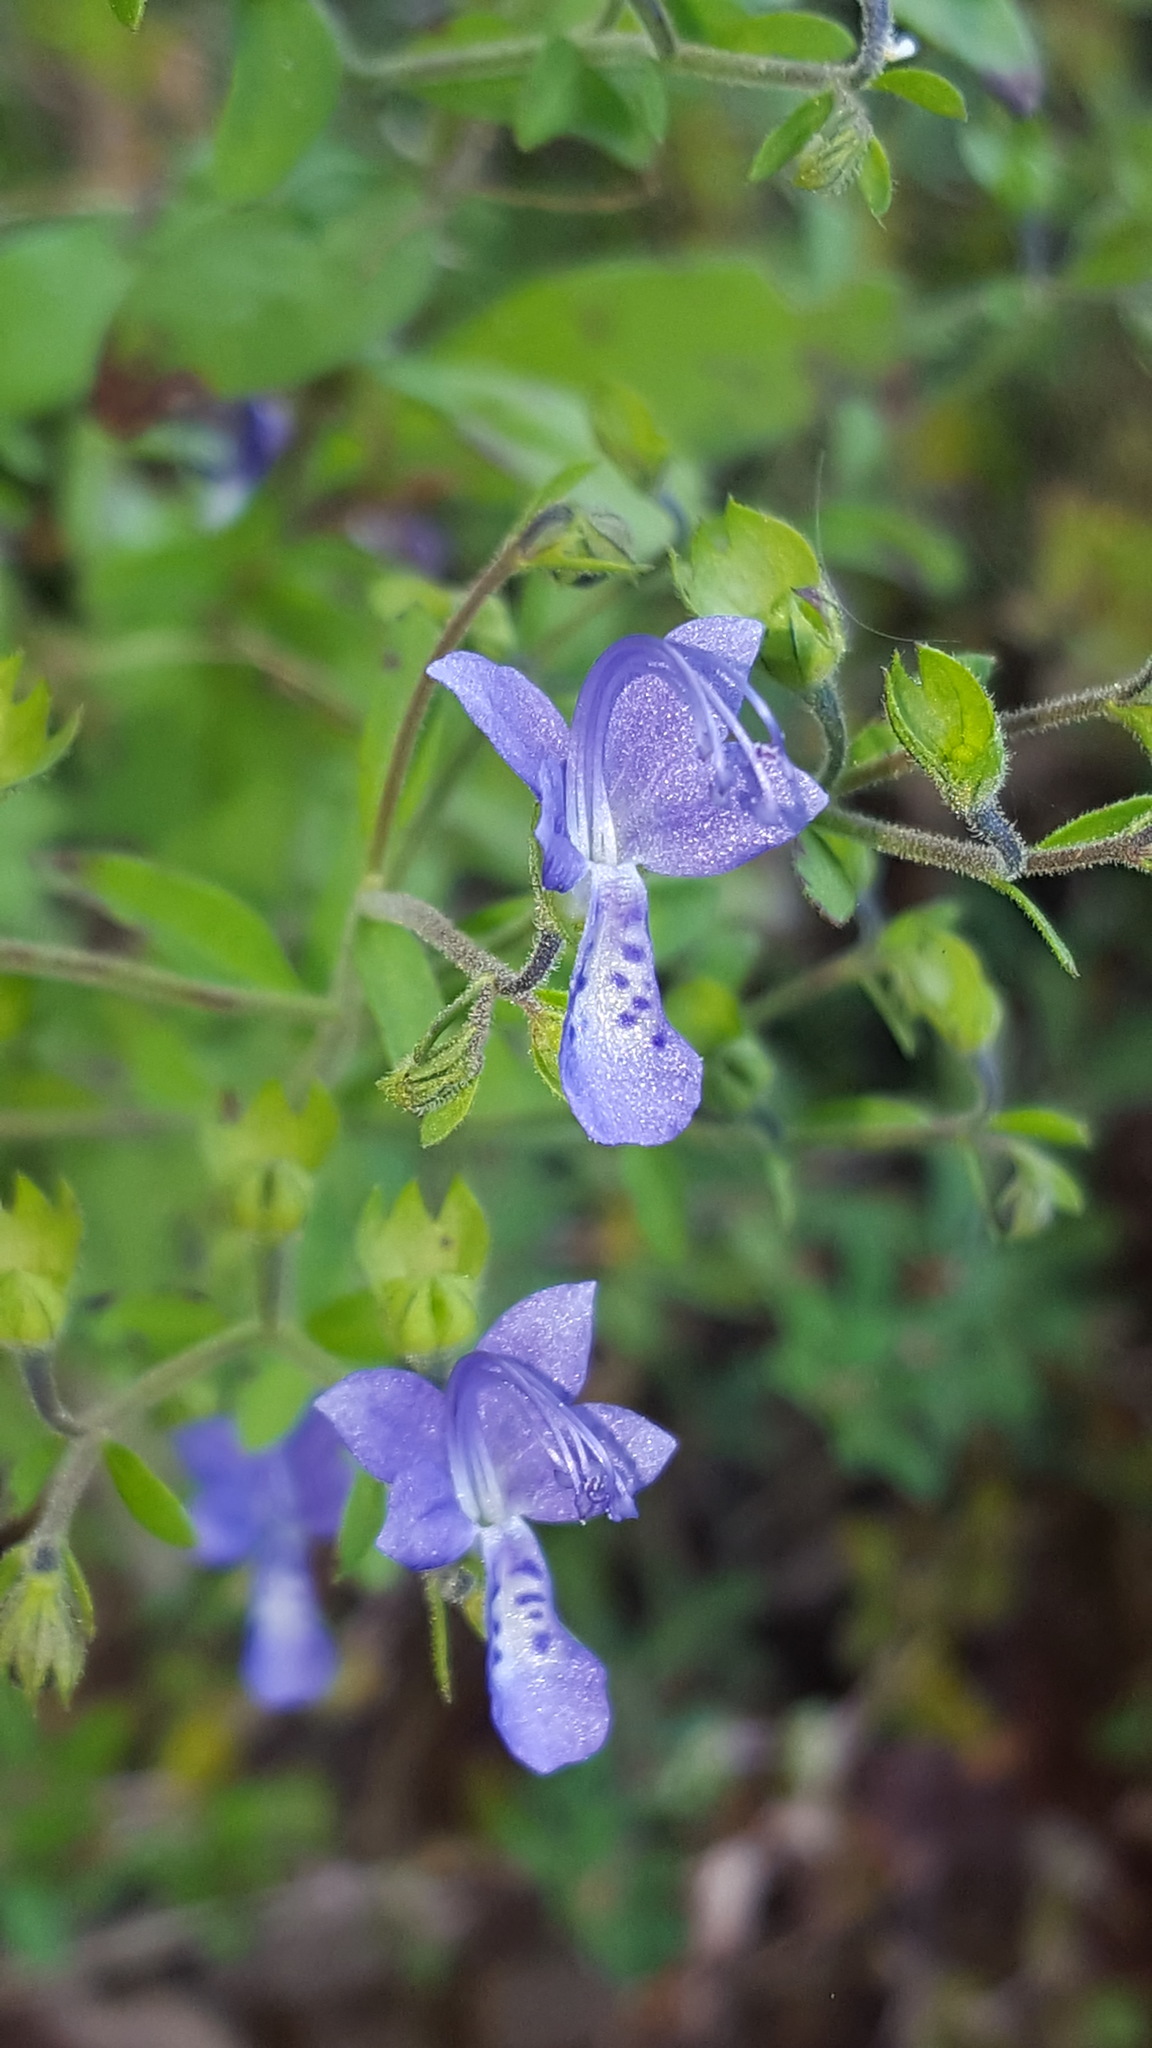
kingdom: Plantae
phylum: Tracheophyta
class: Magnoliopsida
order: Lamiales
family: Lamiaceae
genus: Trichostema
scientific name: Trichostema dichotomum
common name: Bastard pennyroyal
